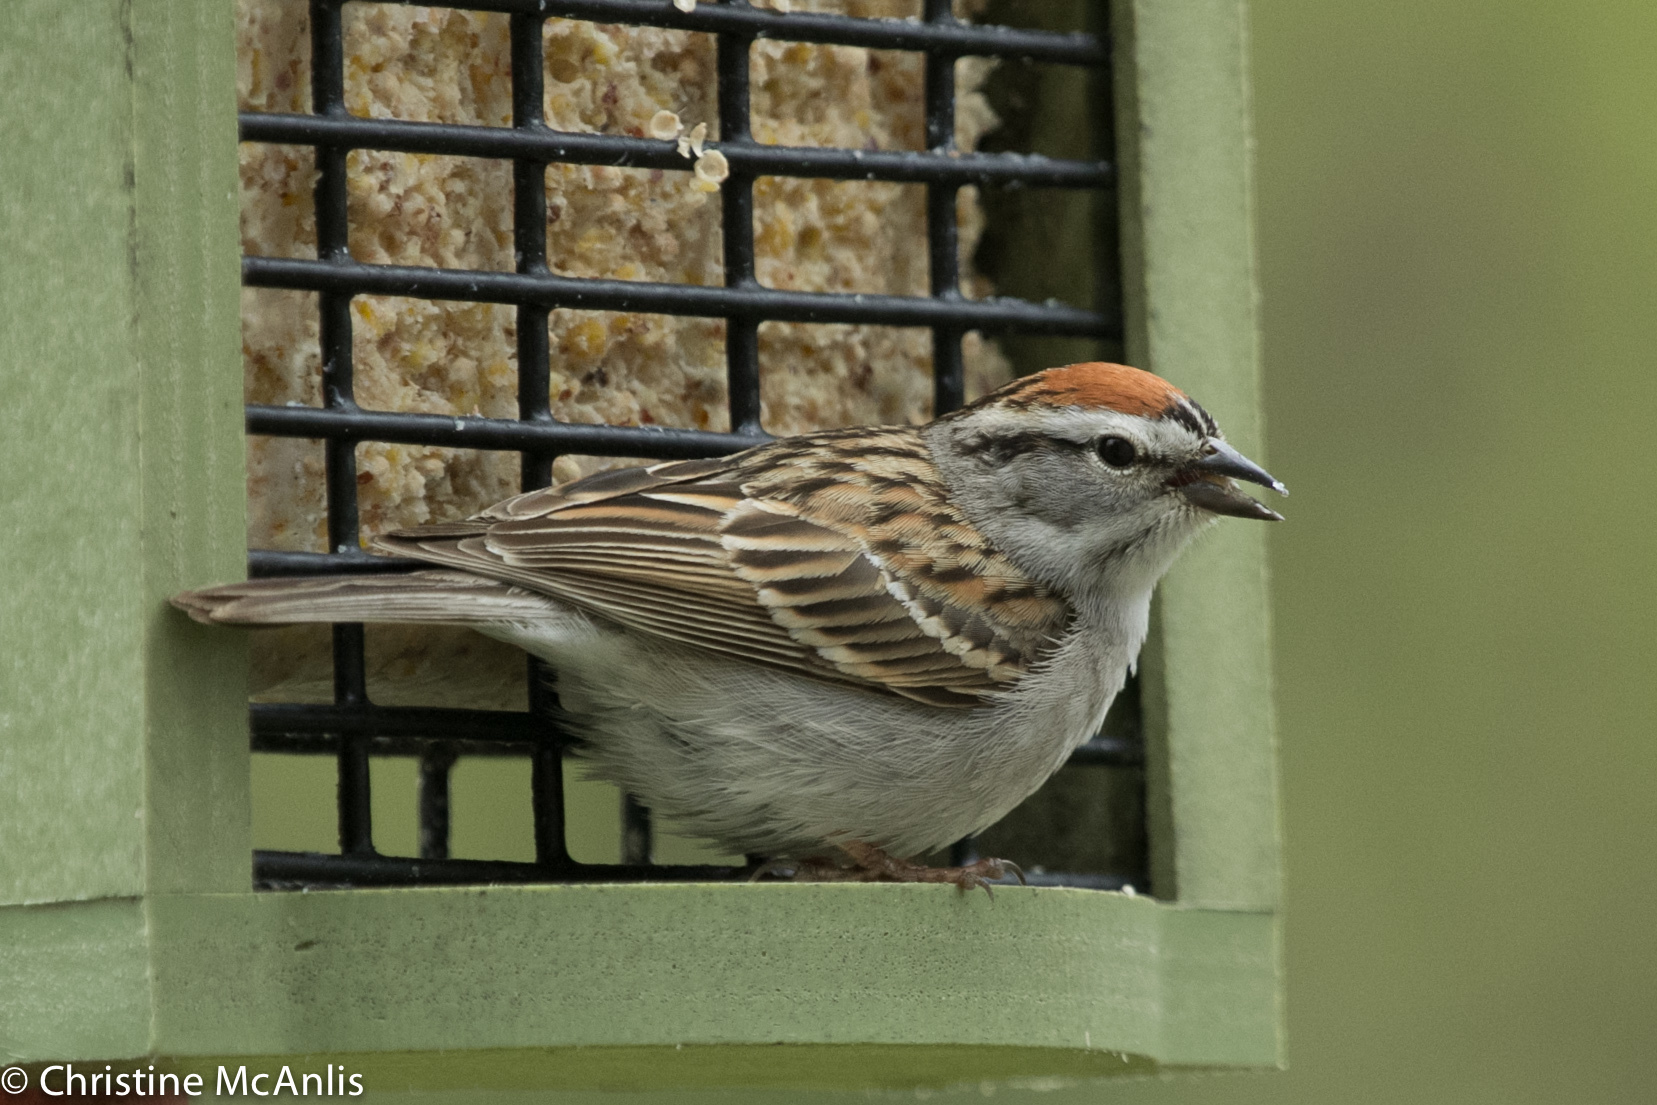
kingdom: Animalia
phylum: Chordata
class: Aves
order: Passeriformes
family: Passerellidae
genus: Spizella
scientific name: Spizella passerina
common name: Chipping sparrow
